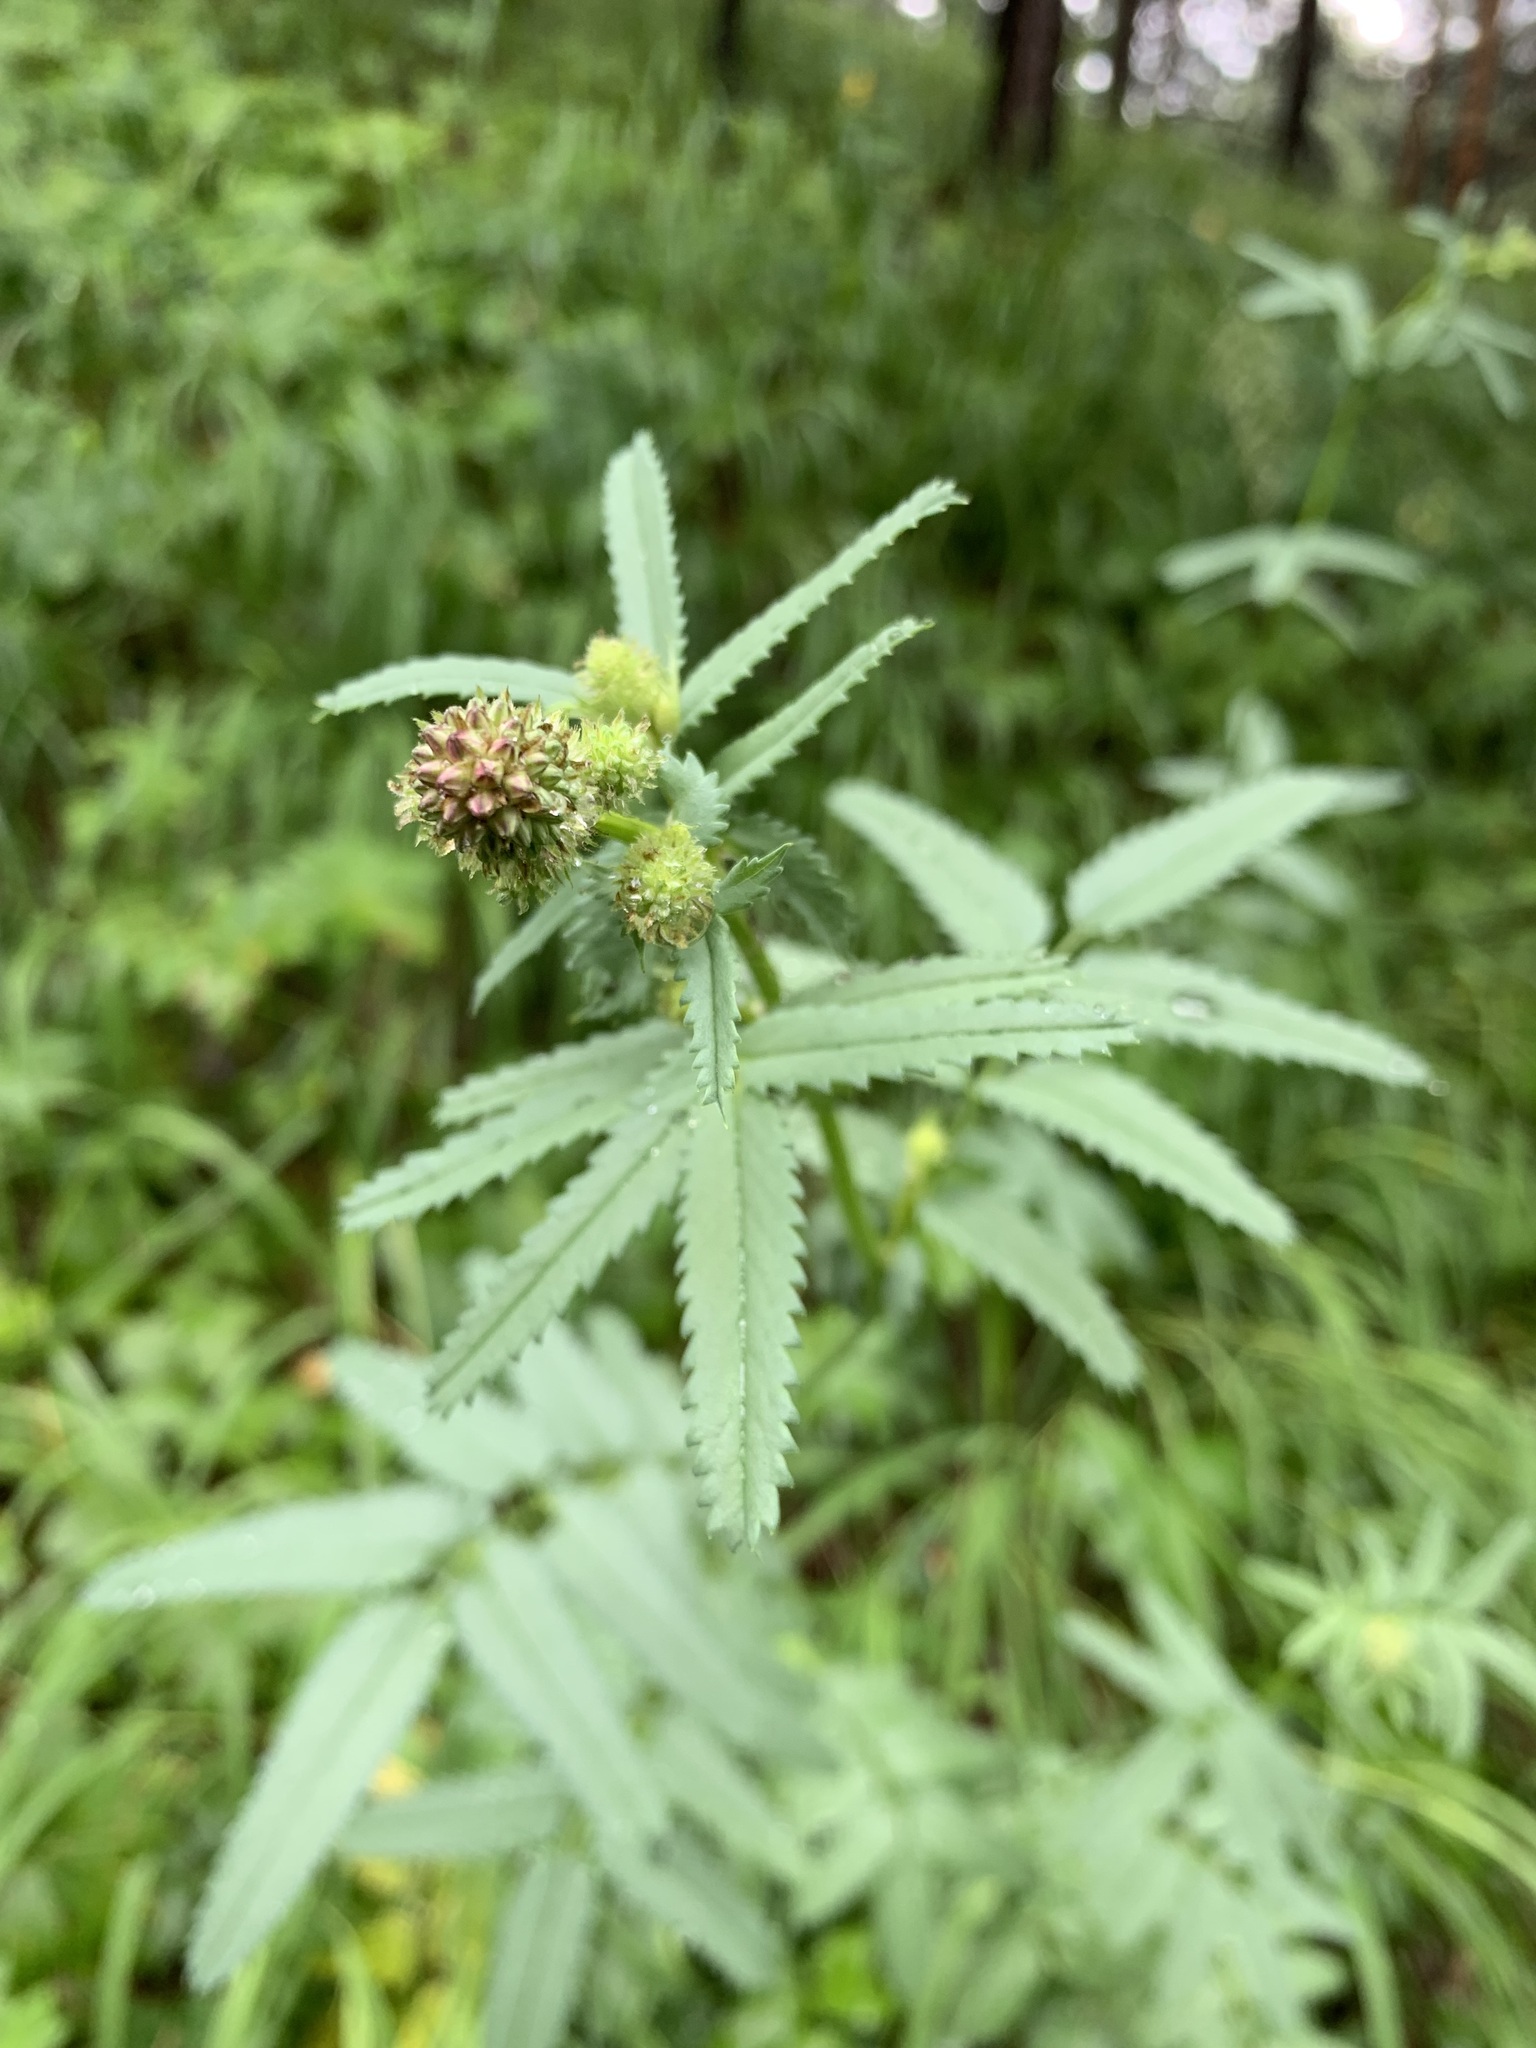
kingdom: Plantae
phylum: Tracheophyta
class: Magnoliopsida
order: Rosales
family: Rosaceae
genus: Sanguisorba
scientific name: Sanguisorba officinalis
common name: Great burnet
